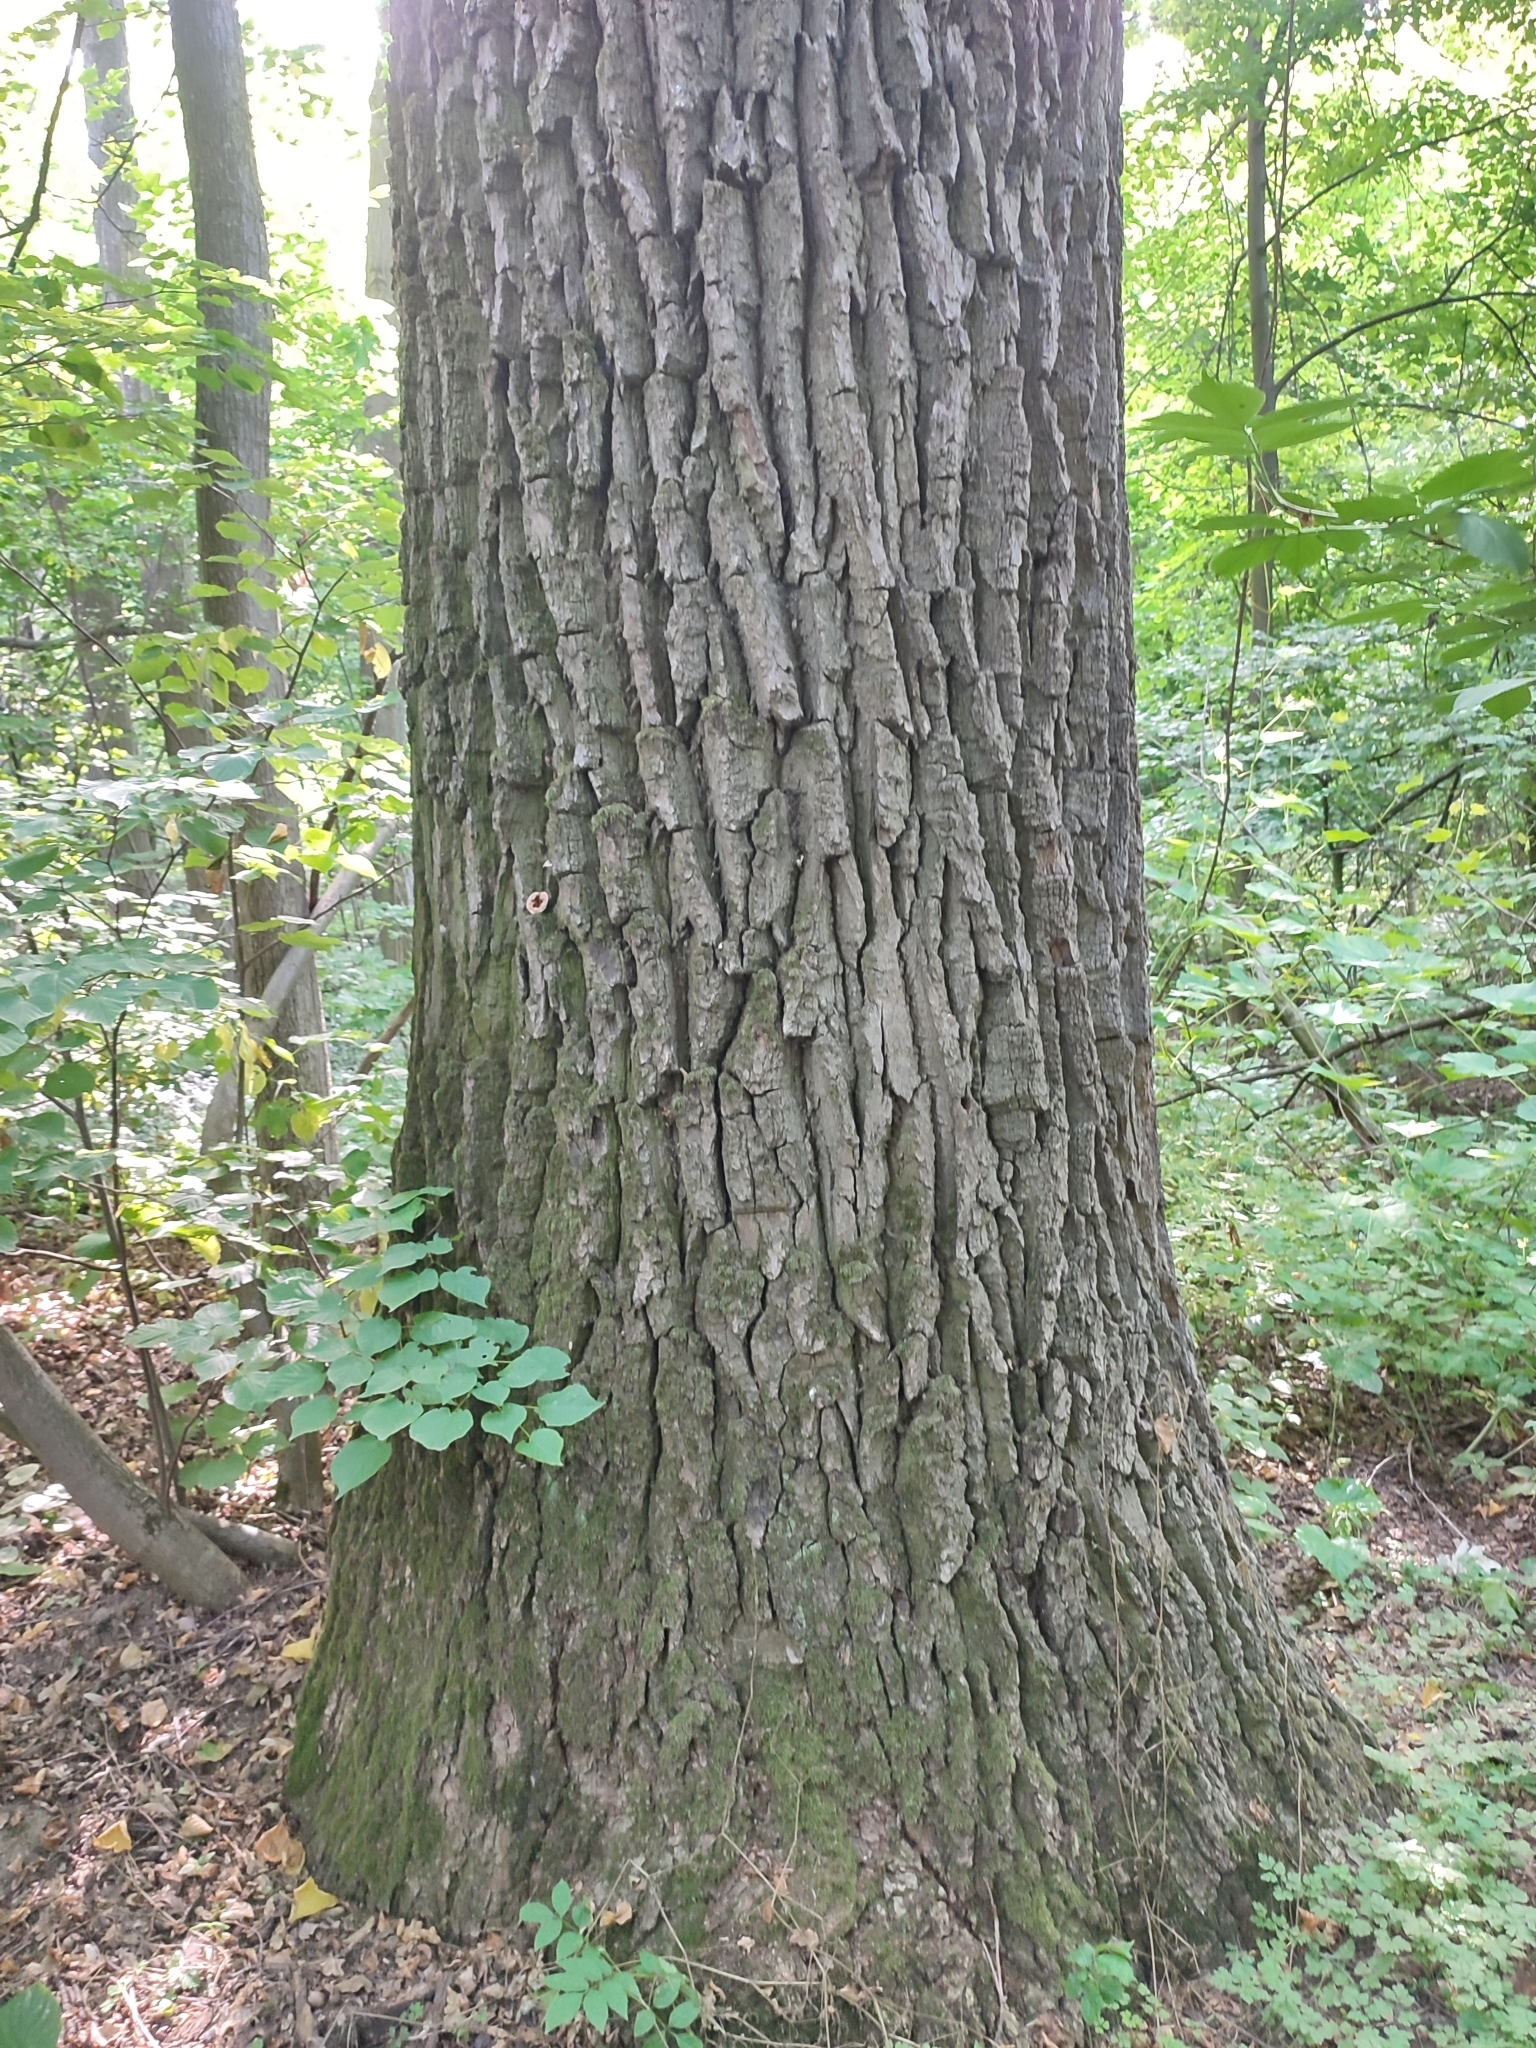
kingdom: Plantae
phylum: Tracheophyta
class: Magnoliopsida
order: Fagales
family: Fagaceae
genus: Quercus
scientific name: Quercus robur
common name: Pedunculate oak
